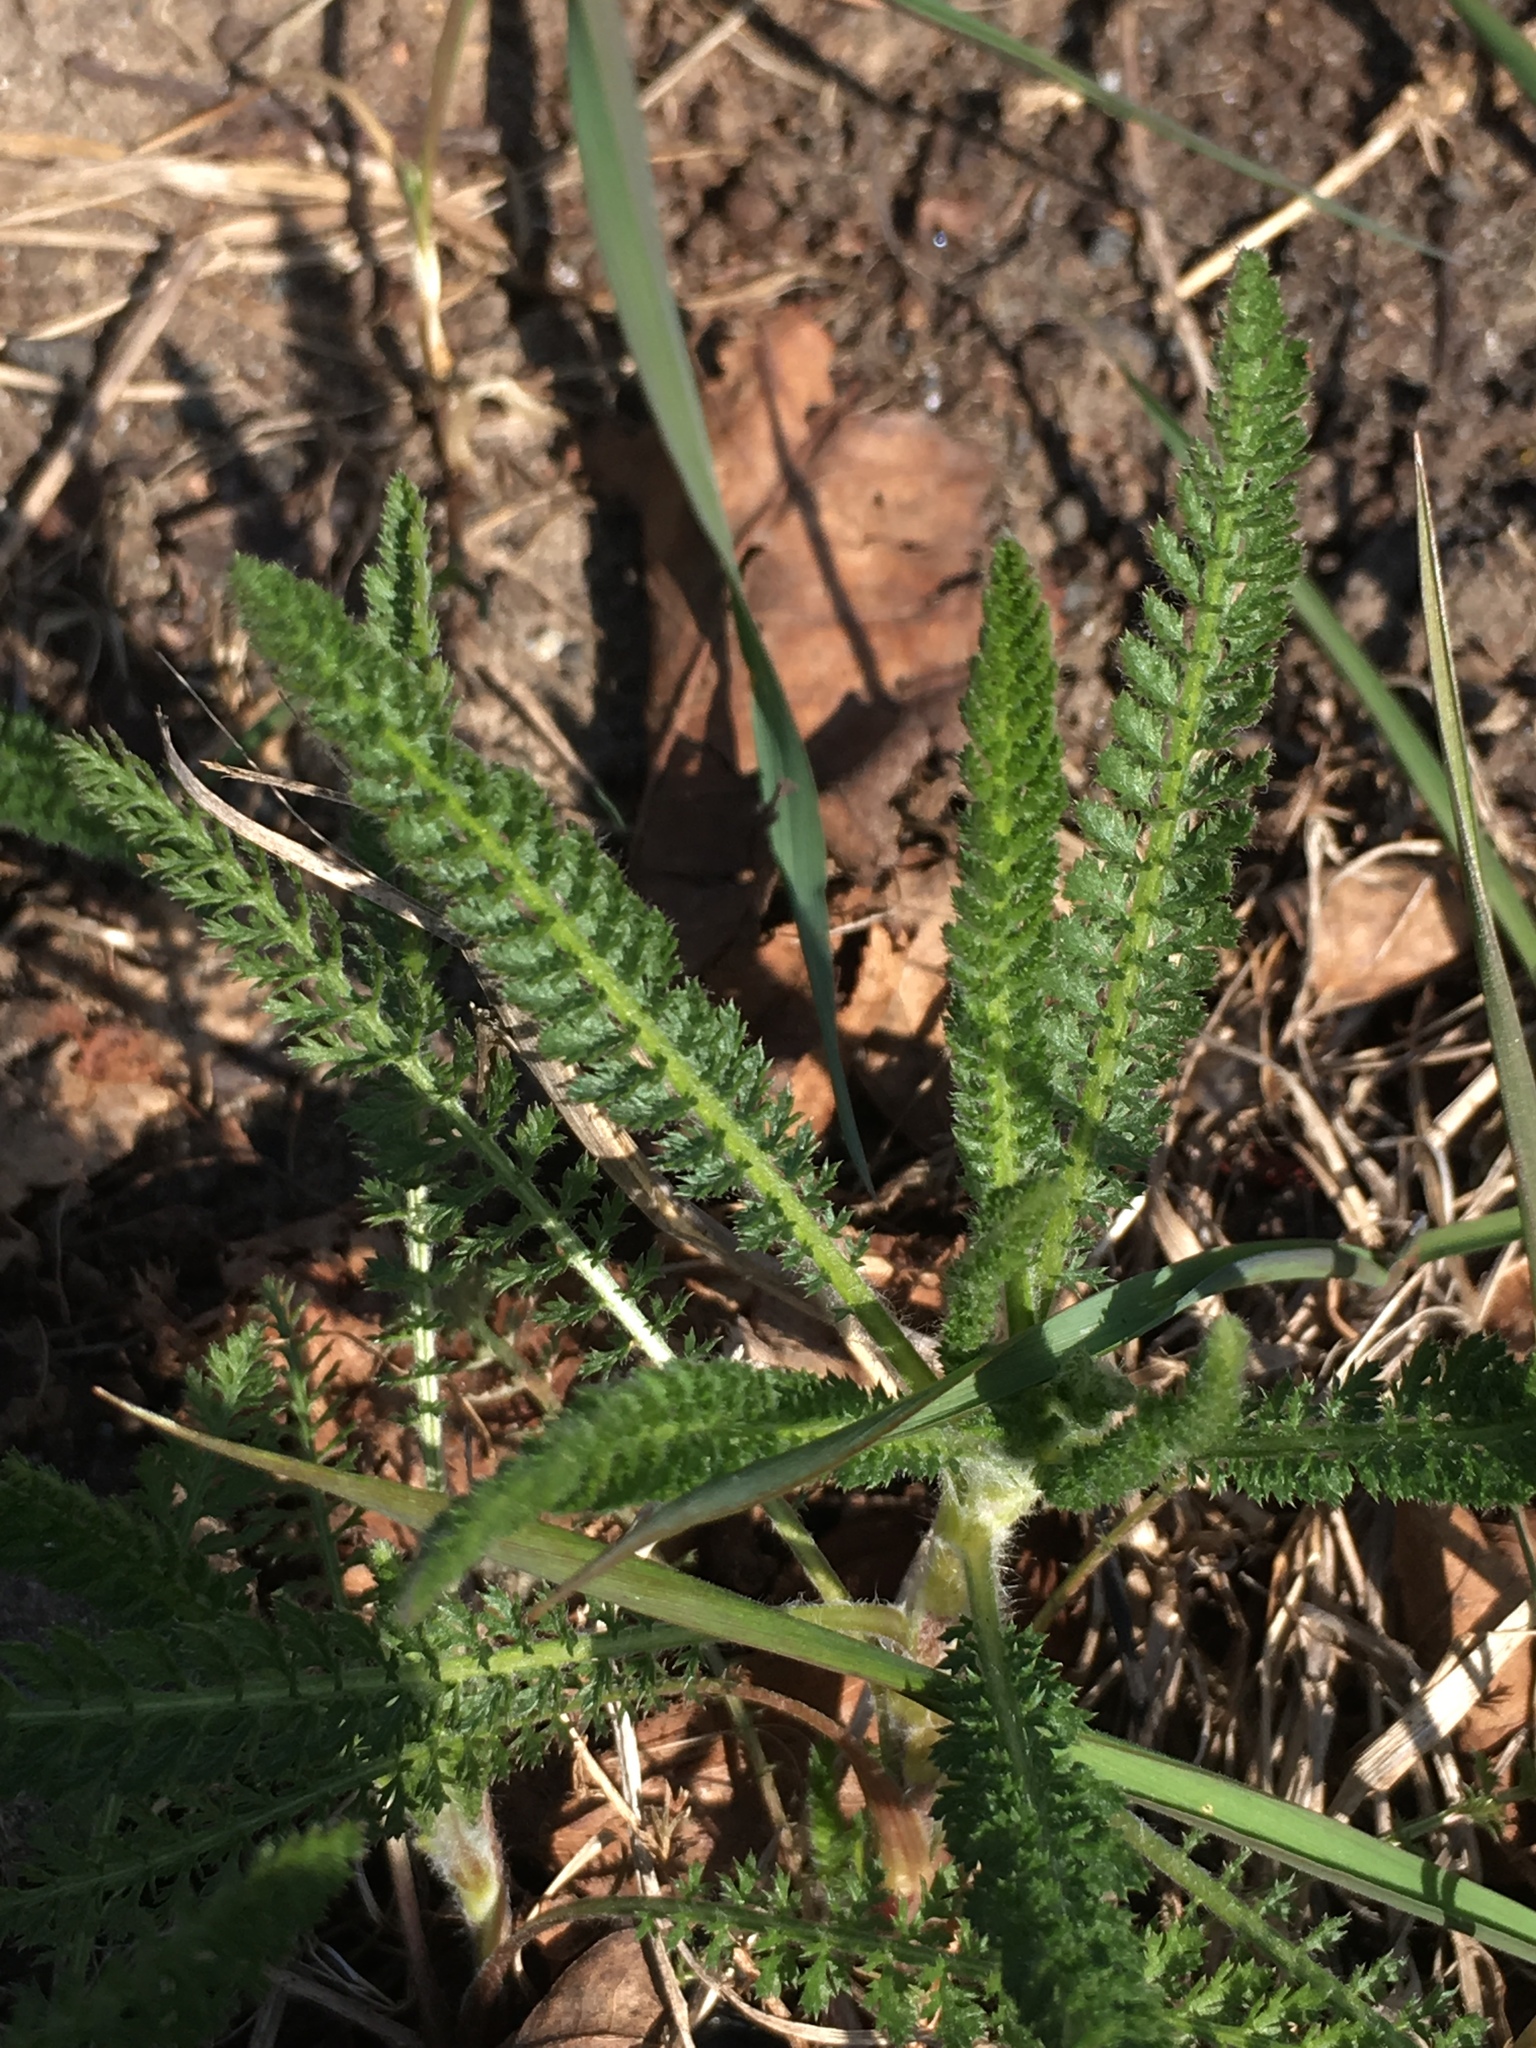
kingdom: Plantae
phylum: Tracheophyta
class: Magnoliopsida
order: Asterales
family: Asteraceae
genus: Achillea
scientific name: Achillea millefolium
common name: Yarrow
